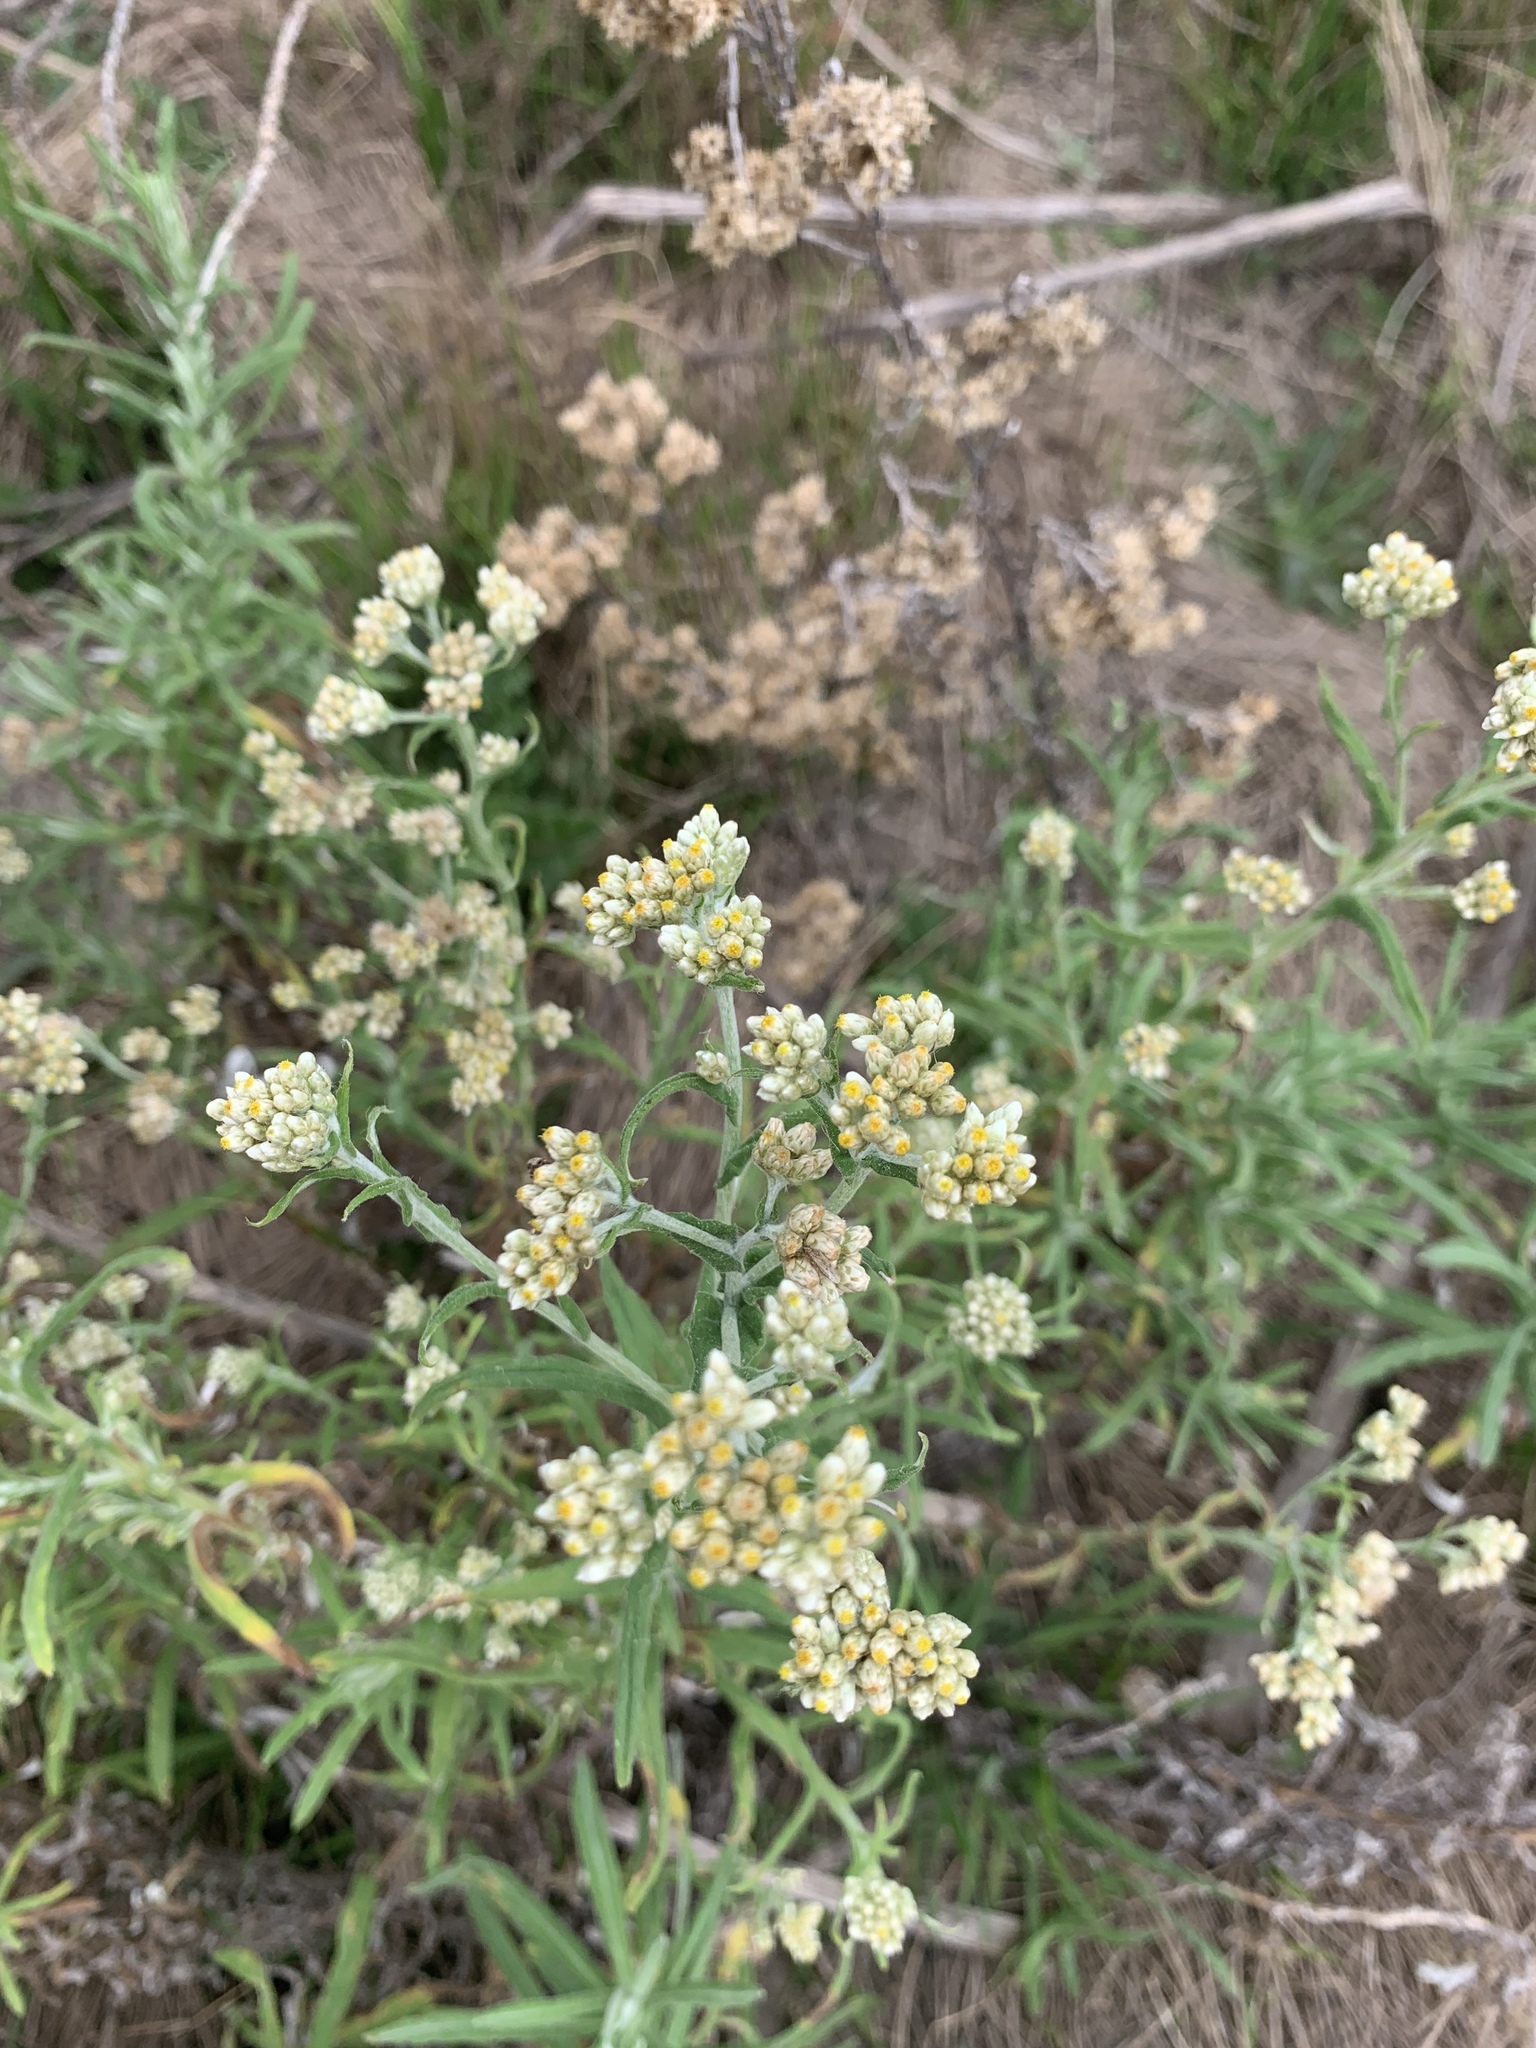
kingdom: Plantae
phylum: Tracheophyta
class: Magnoliopsida
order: Asterales
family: Asteraceae
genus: Helichrysum
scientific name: Helichrysum dasyanthum
